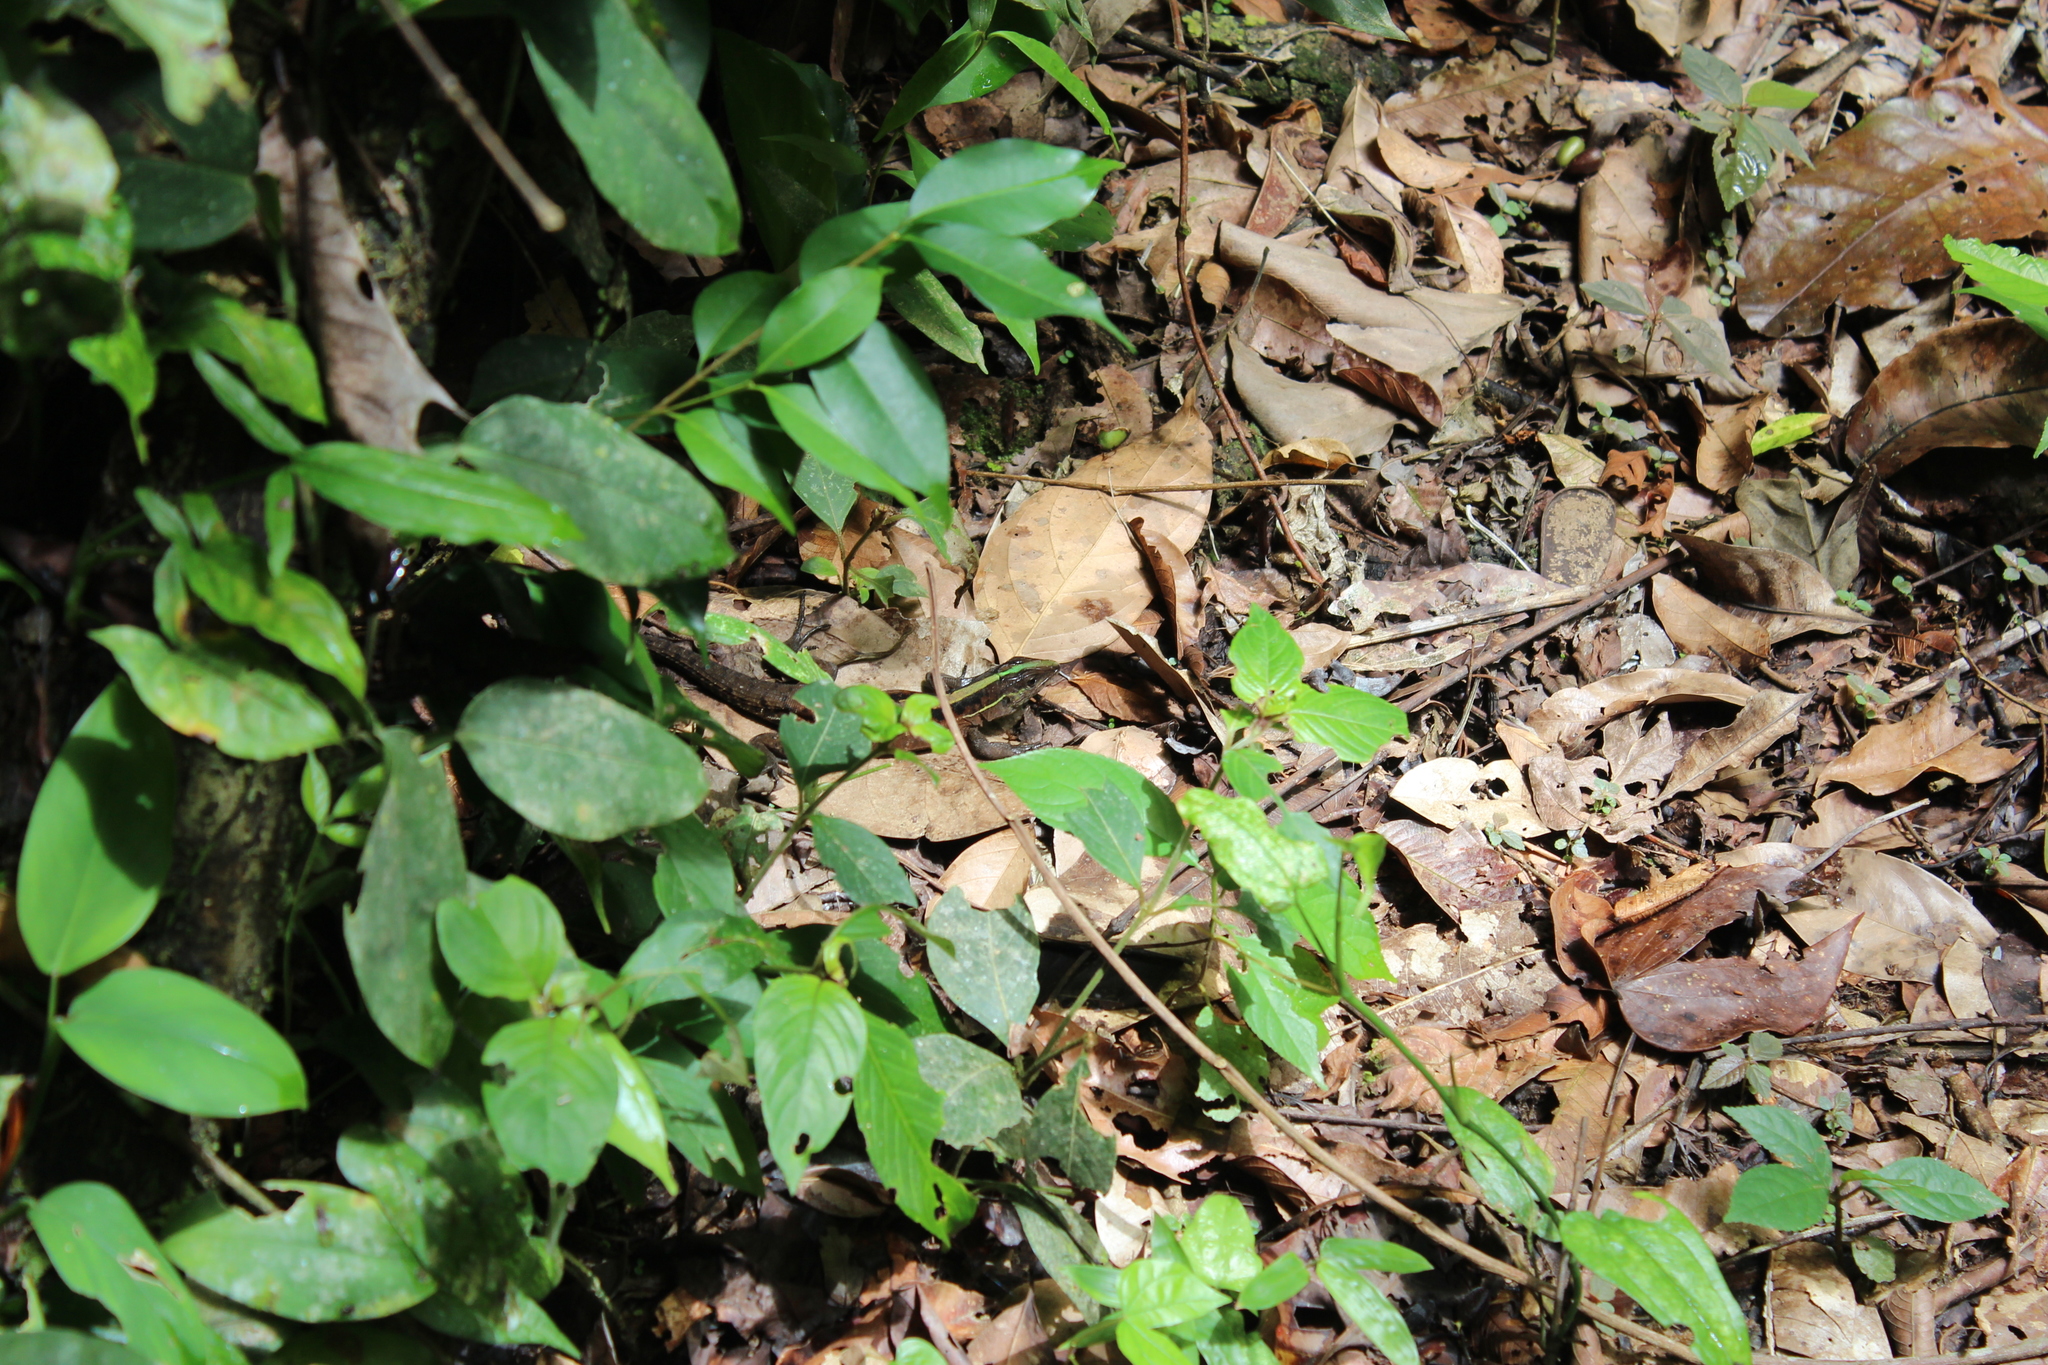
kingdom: Animalia
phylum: Chordata
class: Squamata
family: Teiidae
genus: Kentropyx
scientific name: Kentropyx pelviceps
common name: Forest whiptail
